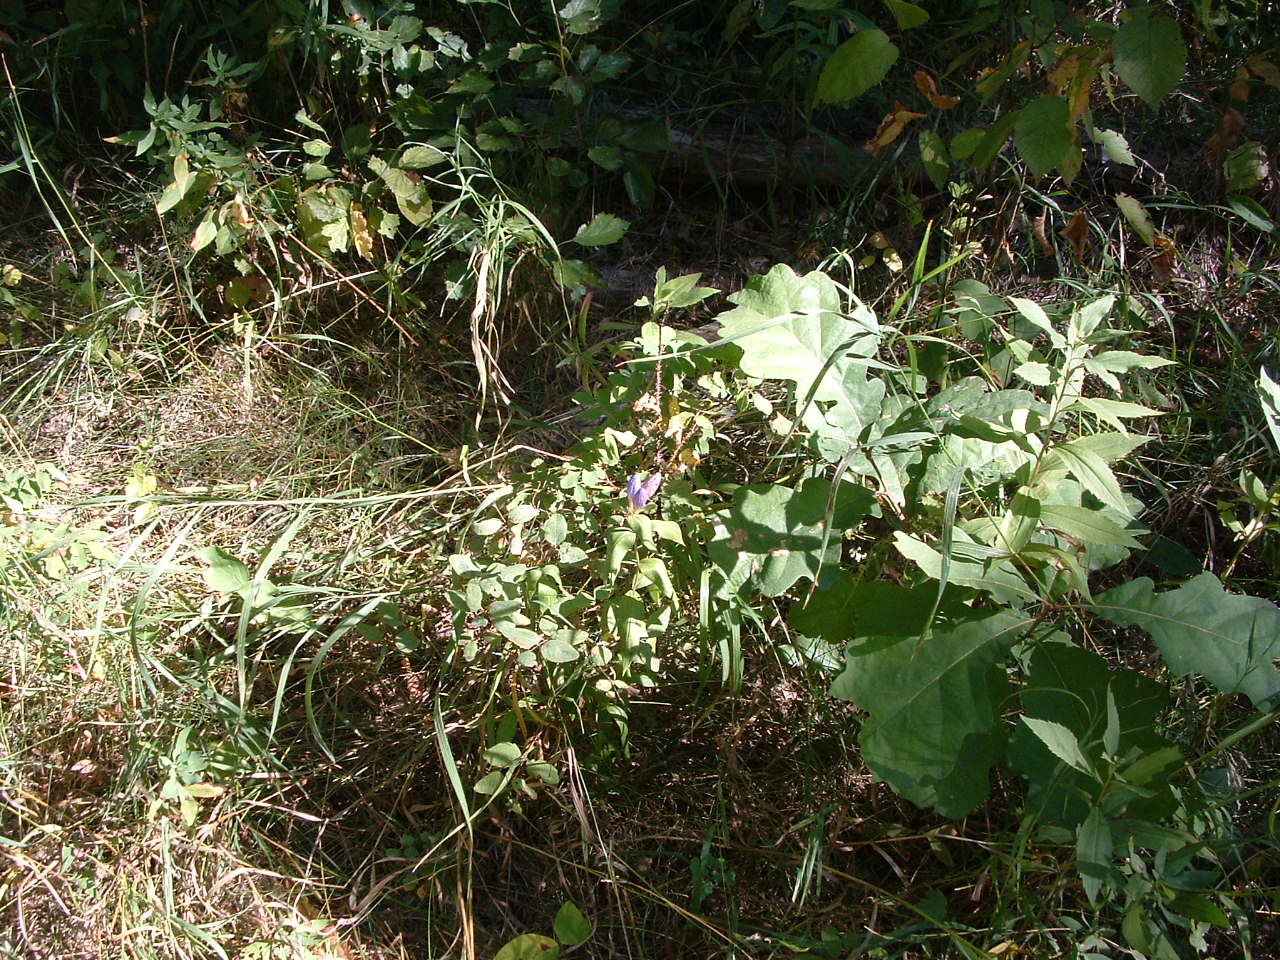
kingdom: Plantae
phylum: Tracheophyta
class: Magnoliopsida
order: Gentianales
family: Gentianaceae
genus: Gentiana
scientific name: Gentiana andrewsii
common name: Bottle gentian
